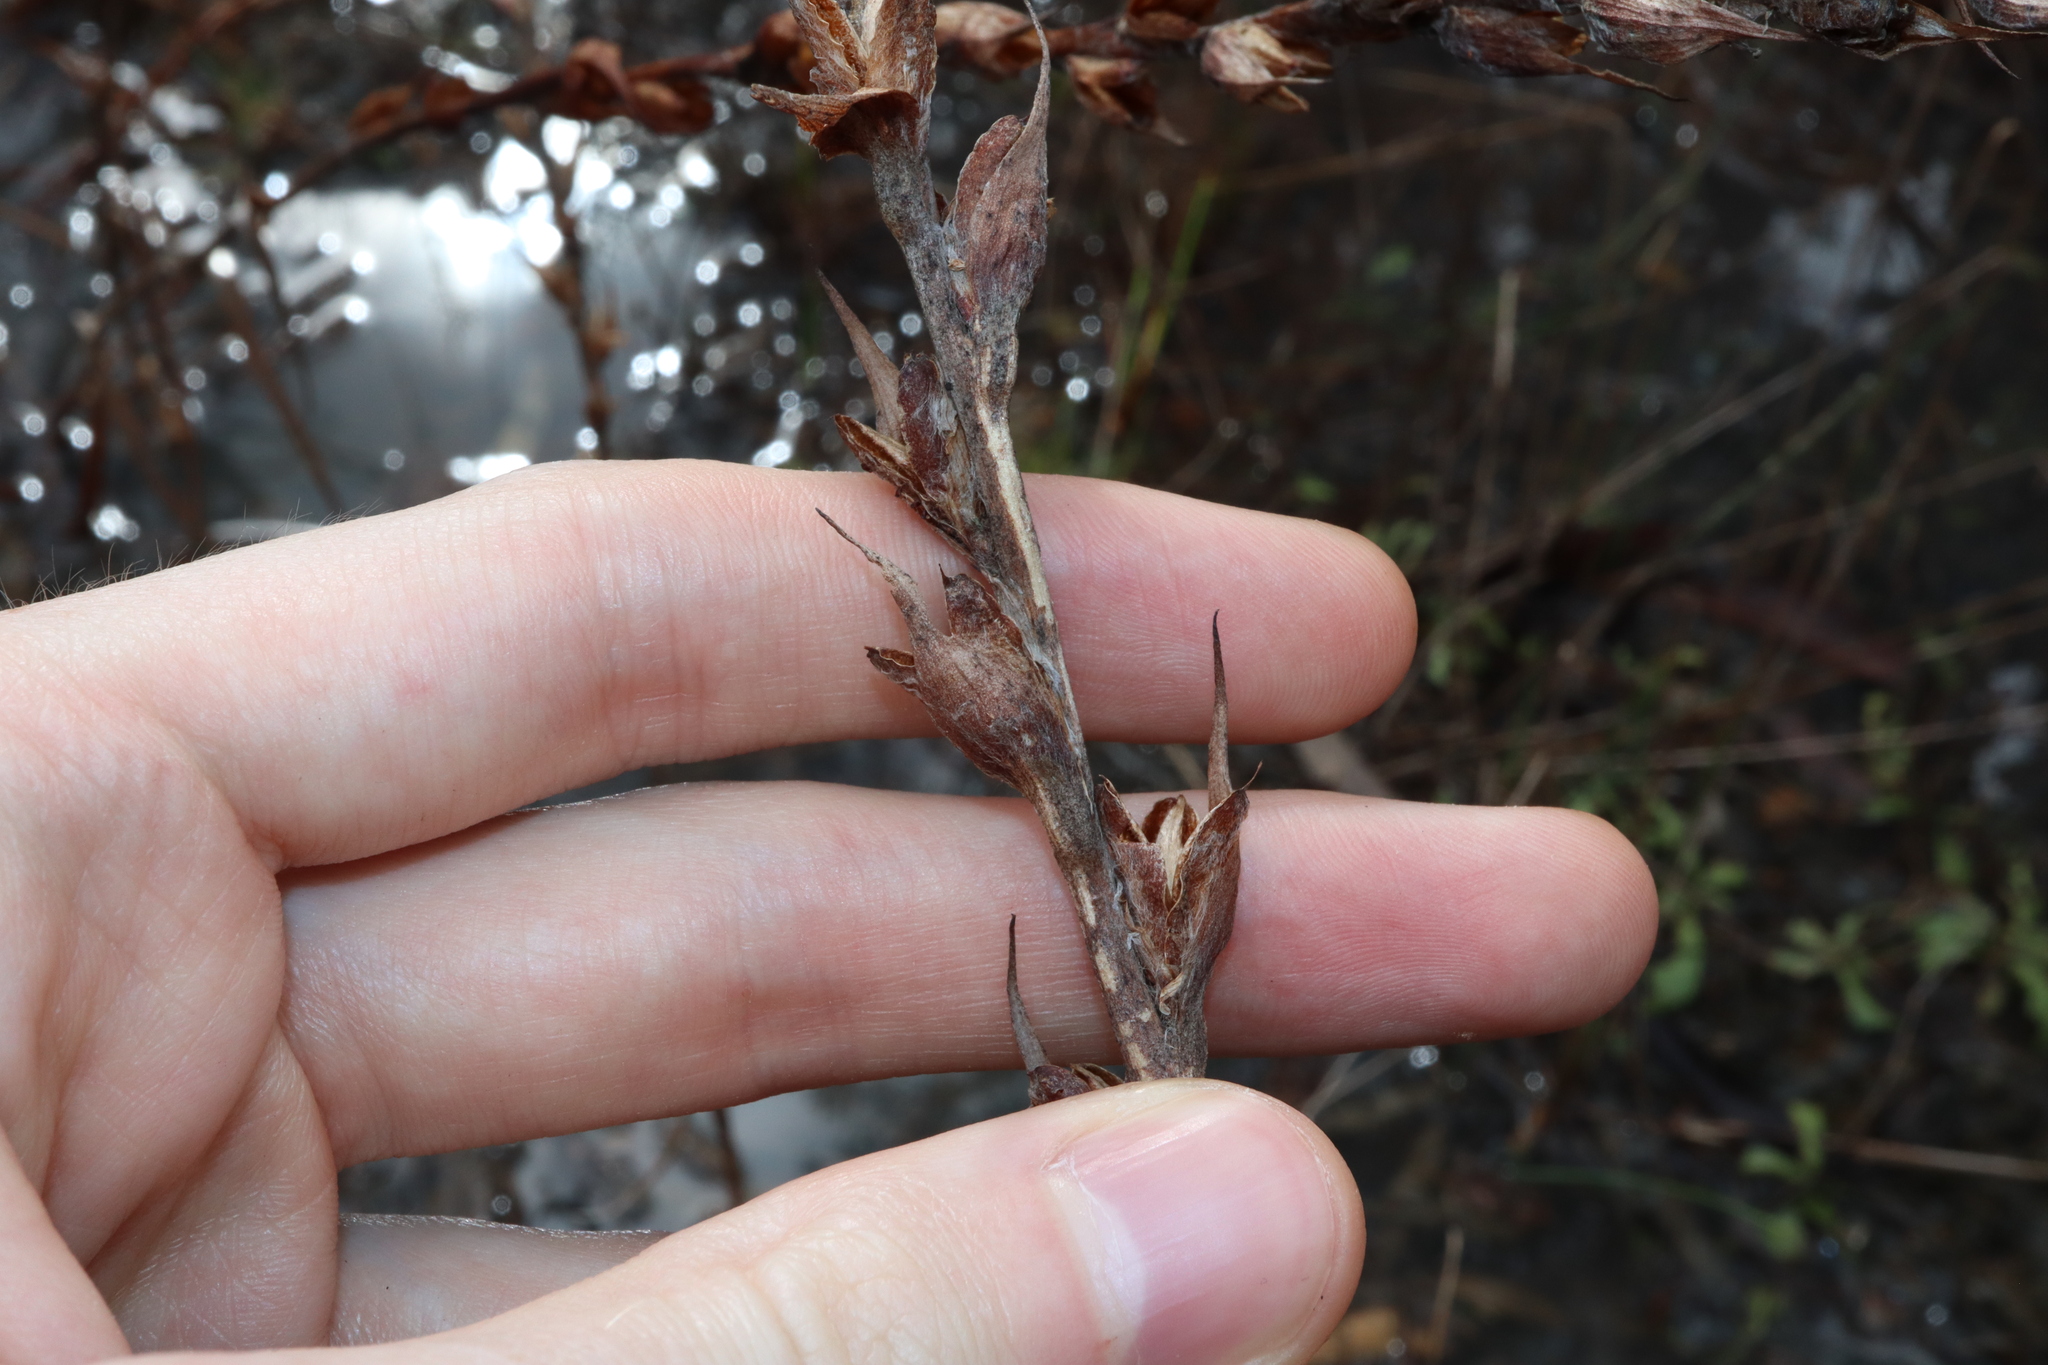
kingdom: Plantae
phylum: Tracheophyta
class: Liliopsida
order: Commelinales
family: Philydraceae
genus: Philydrum
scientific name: Philydrum lanuginosum
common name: Woolly frog's mouth
